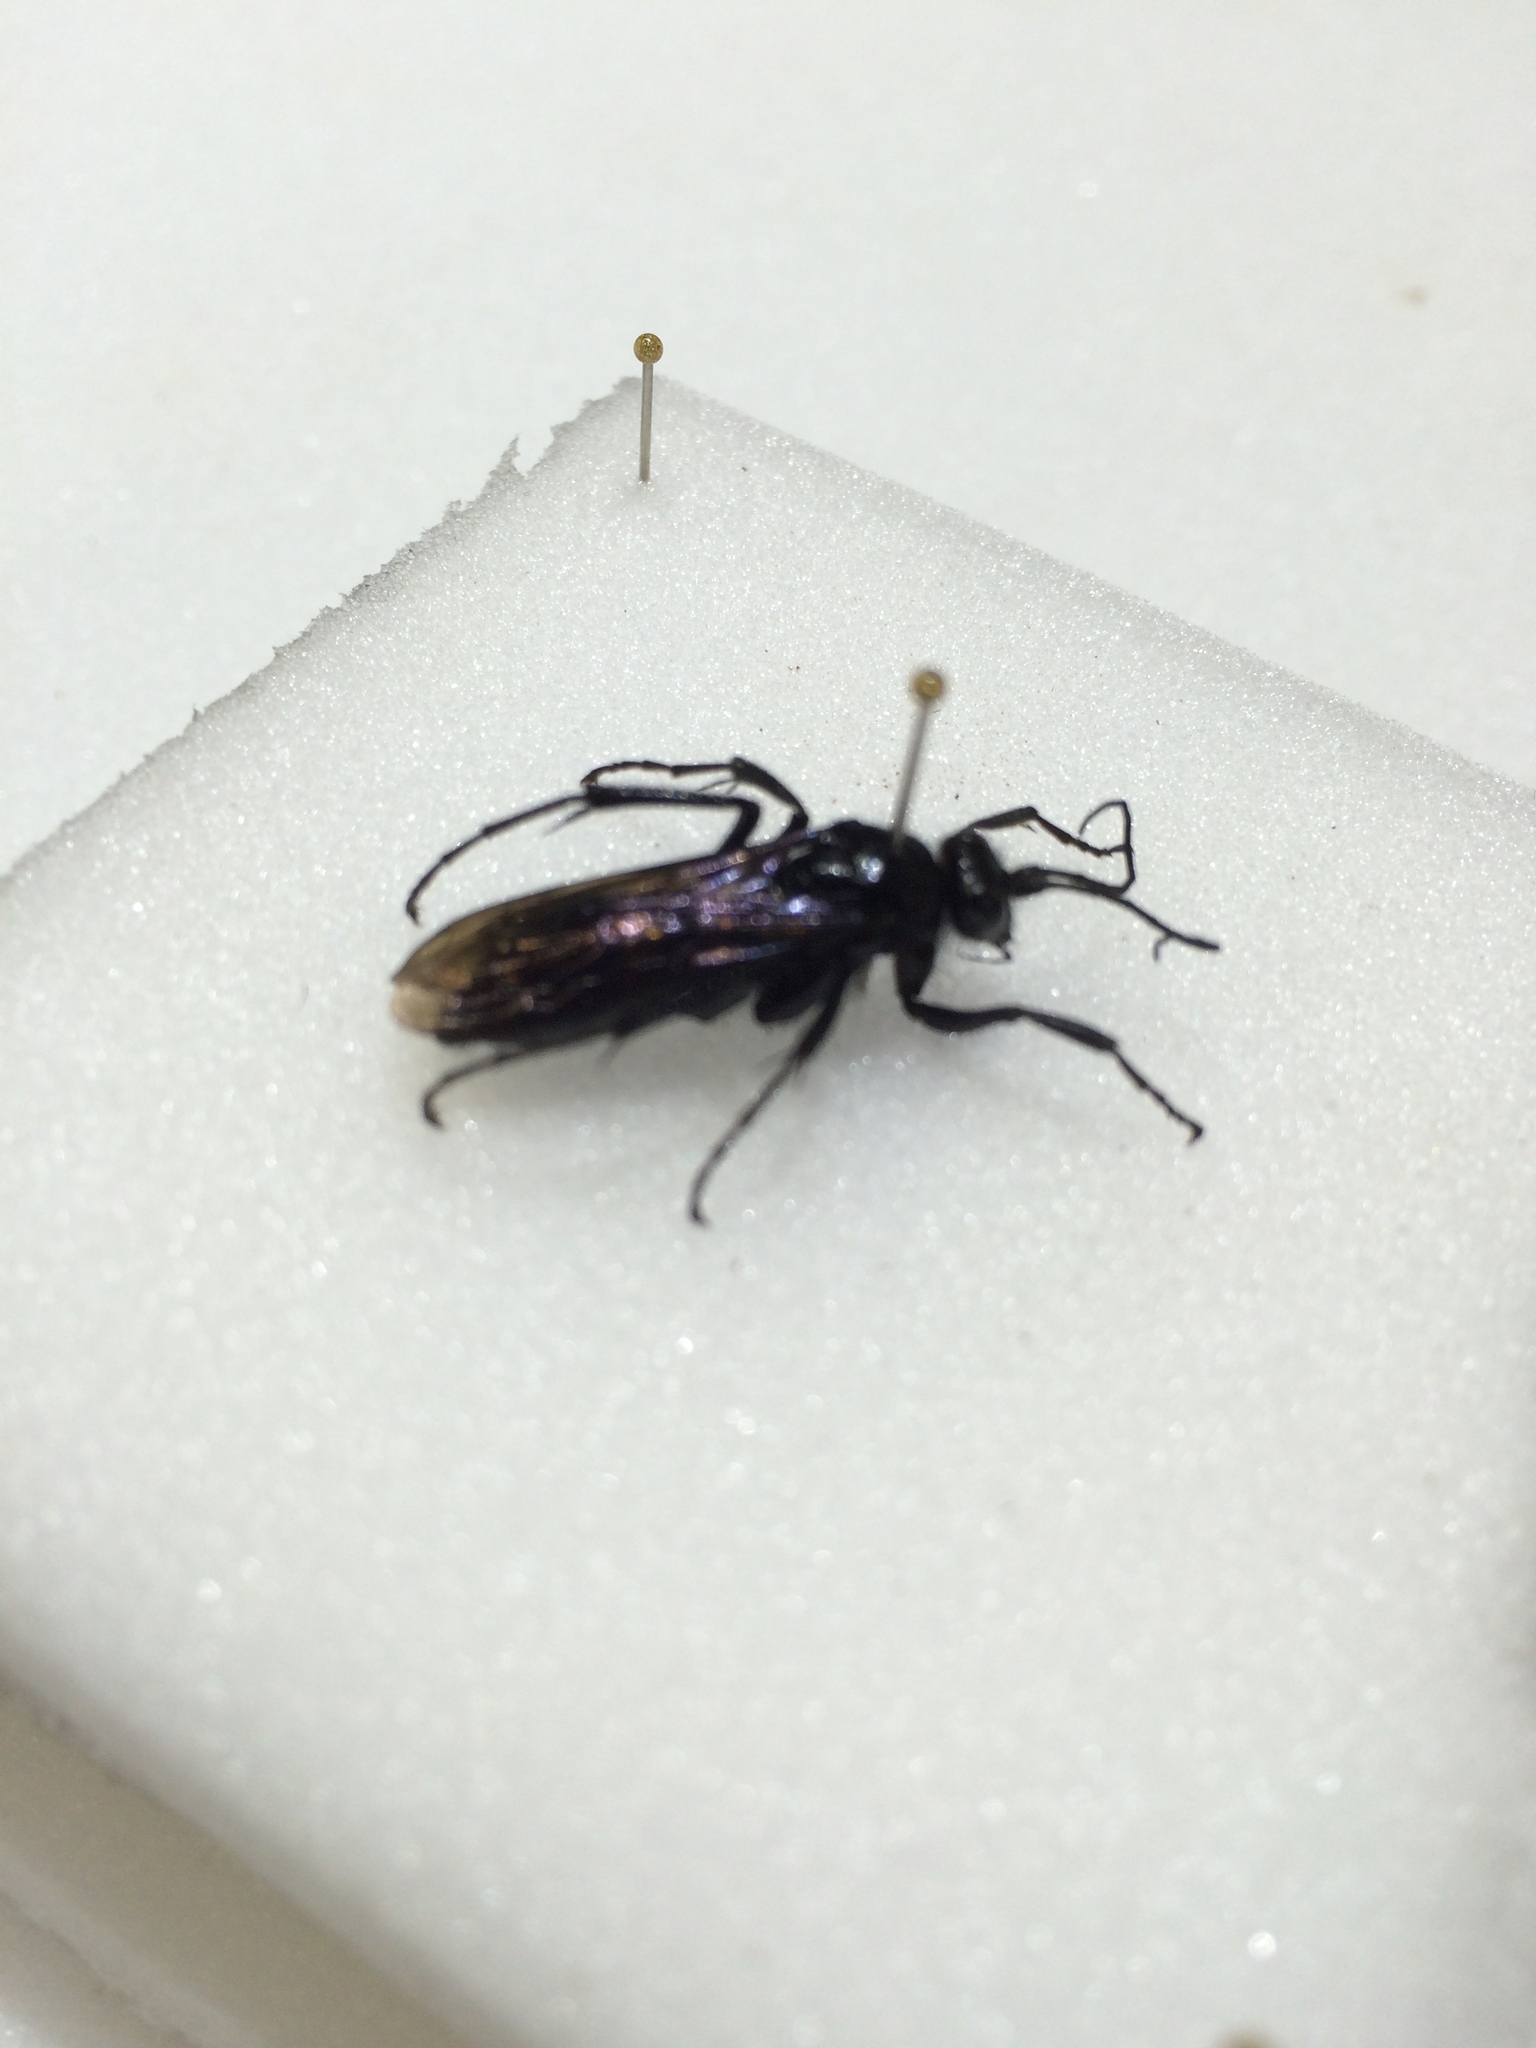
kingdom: Animalia
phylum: Arthropoda
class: Insecta
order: Hymenoptera
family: Pompilidae
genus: Priocnemis
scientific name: Priocnemis monachus
